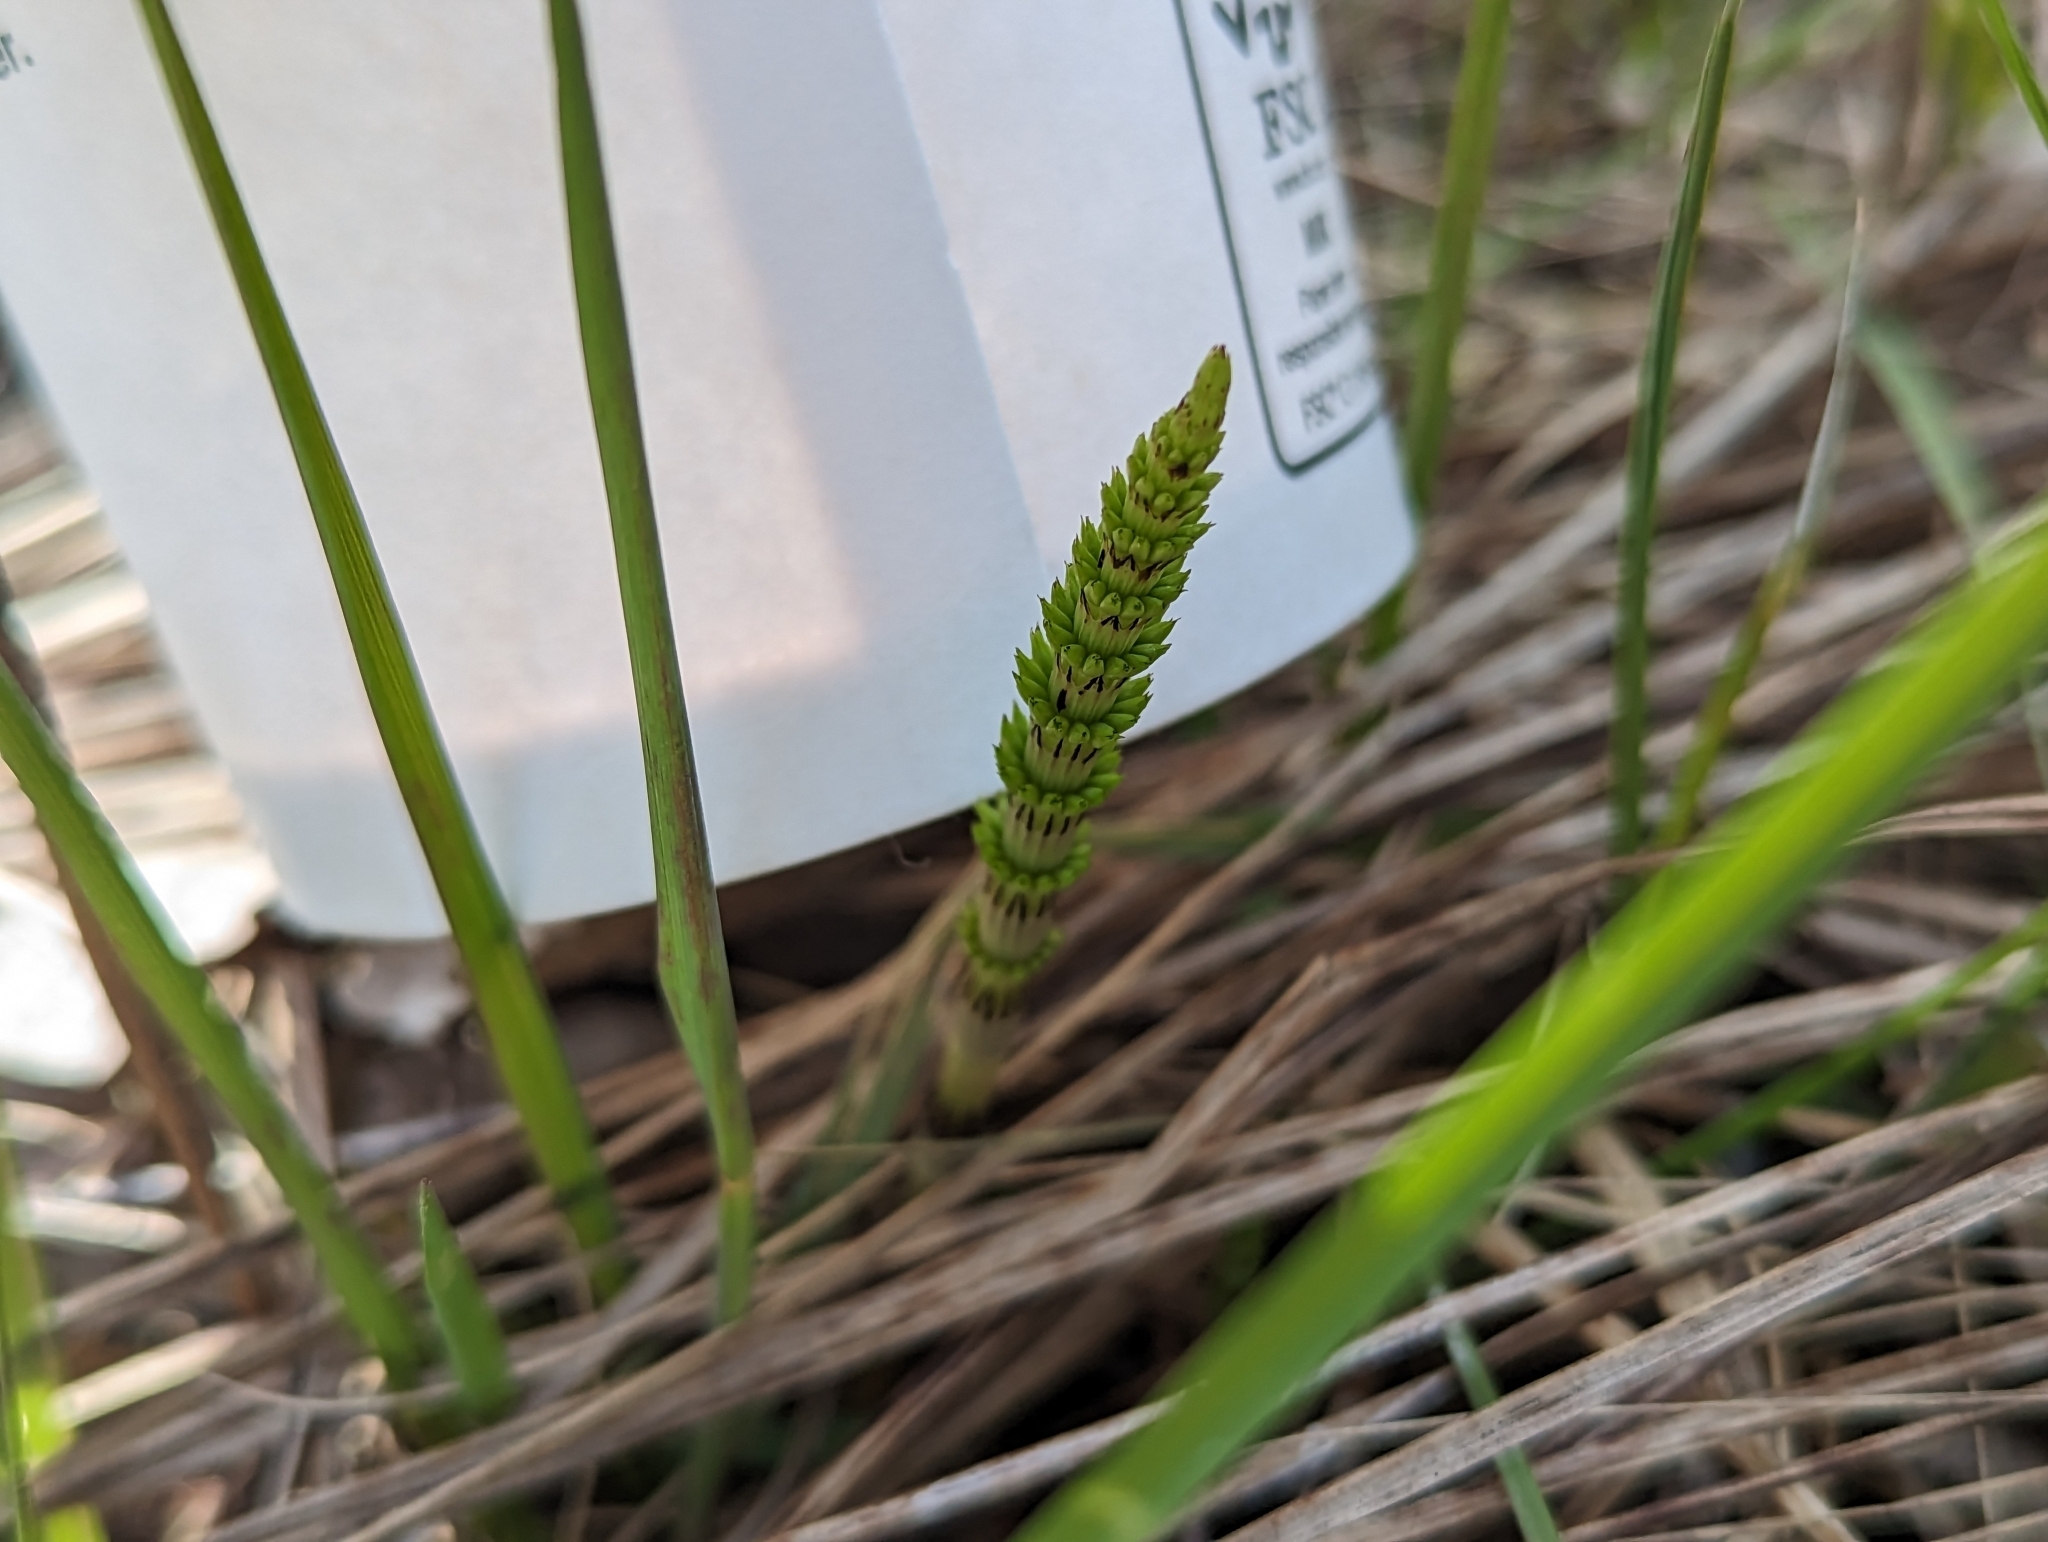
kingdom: Plantae
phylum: Tracheophyta
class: Polypodiopsida
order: Equisetales
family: Equisetaceae
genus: Equisetum
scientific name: Equisetum arvense
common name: Field horsetail
